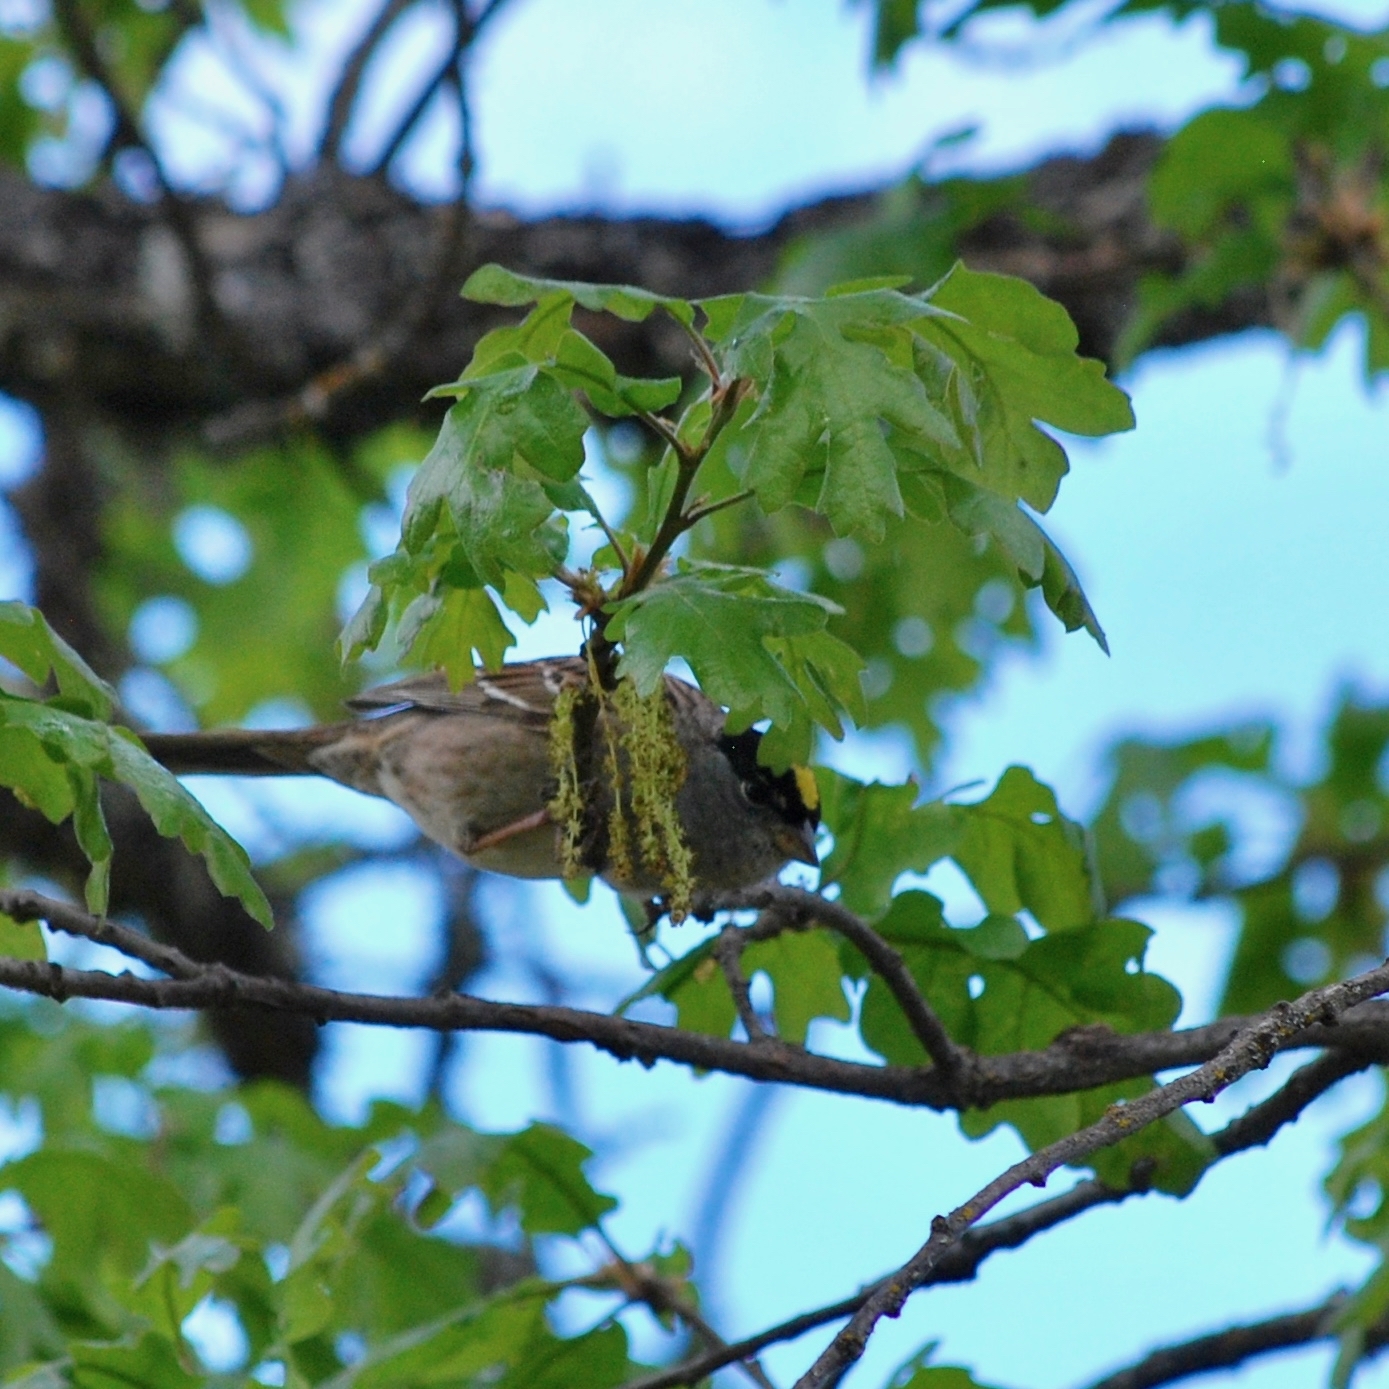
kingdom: Animalia
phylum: Chordata
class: Aves
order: Passeriformes
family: Passerellidae
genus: Zonotrichia
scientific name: Zonotrichia atricapilla
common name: Golden-crowned sparrow
